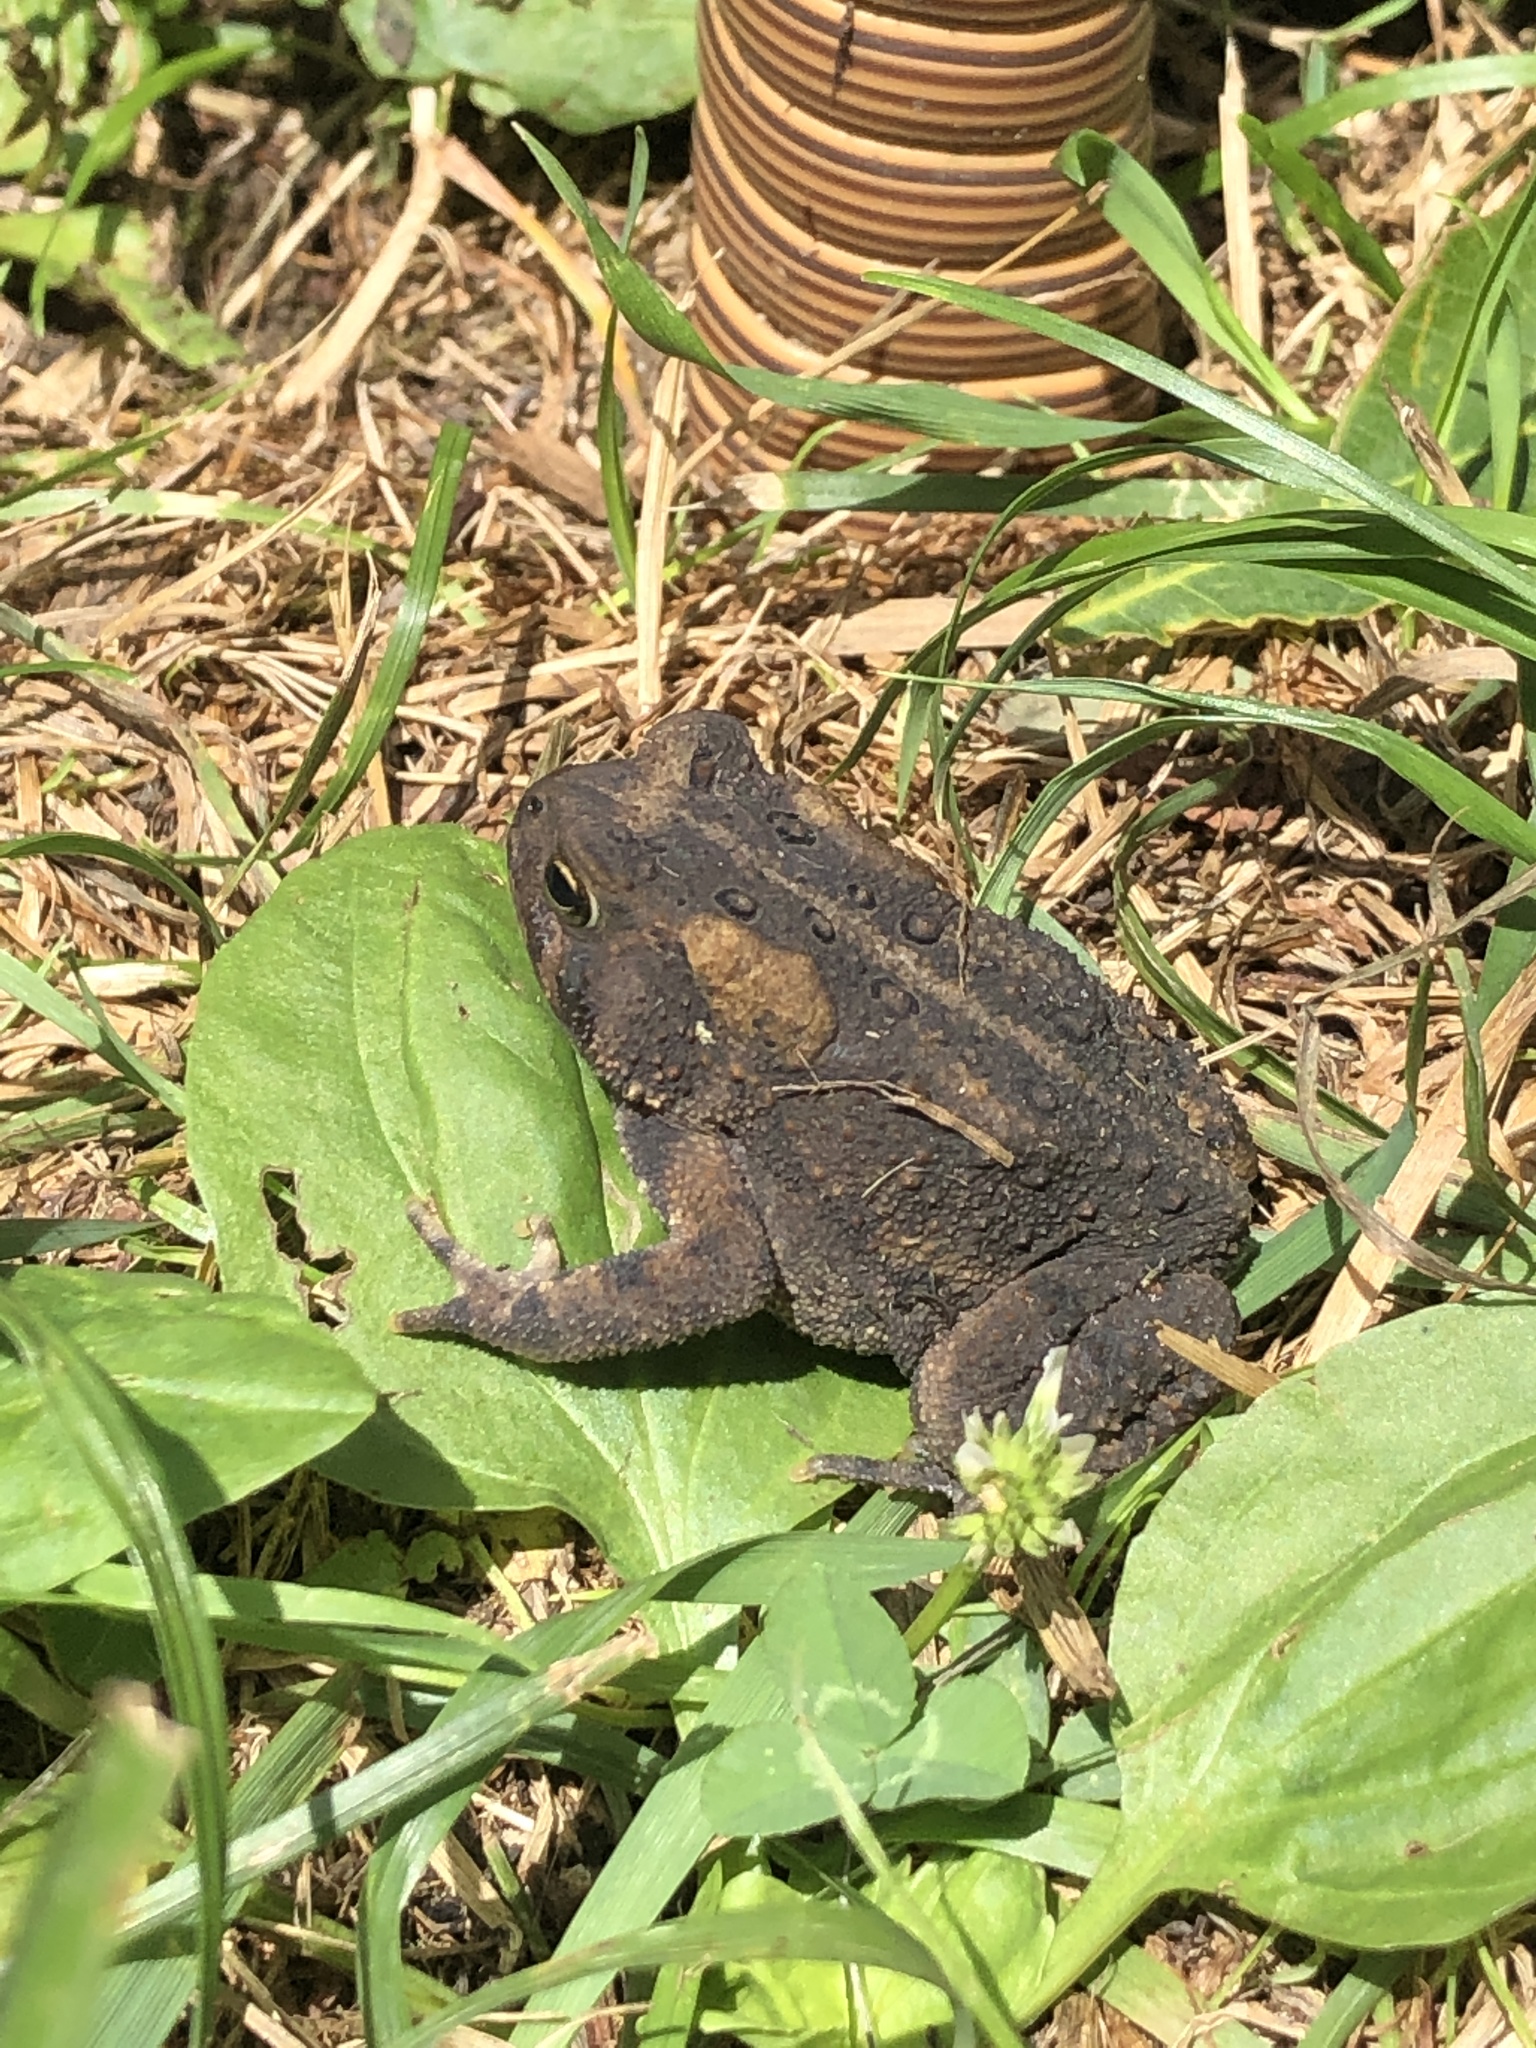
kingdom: Animalia
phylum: Chordata
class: Amphibia
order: Anura
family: Bufonidae
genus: Anaxyrus
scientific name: Anaxyrus americanus
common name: American toad
